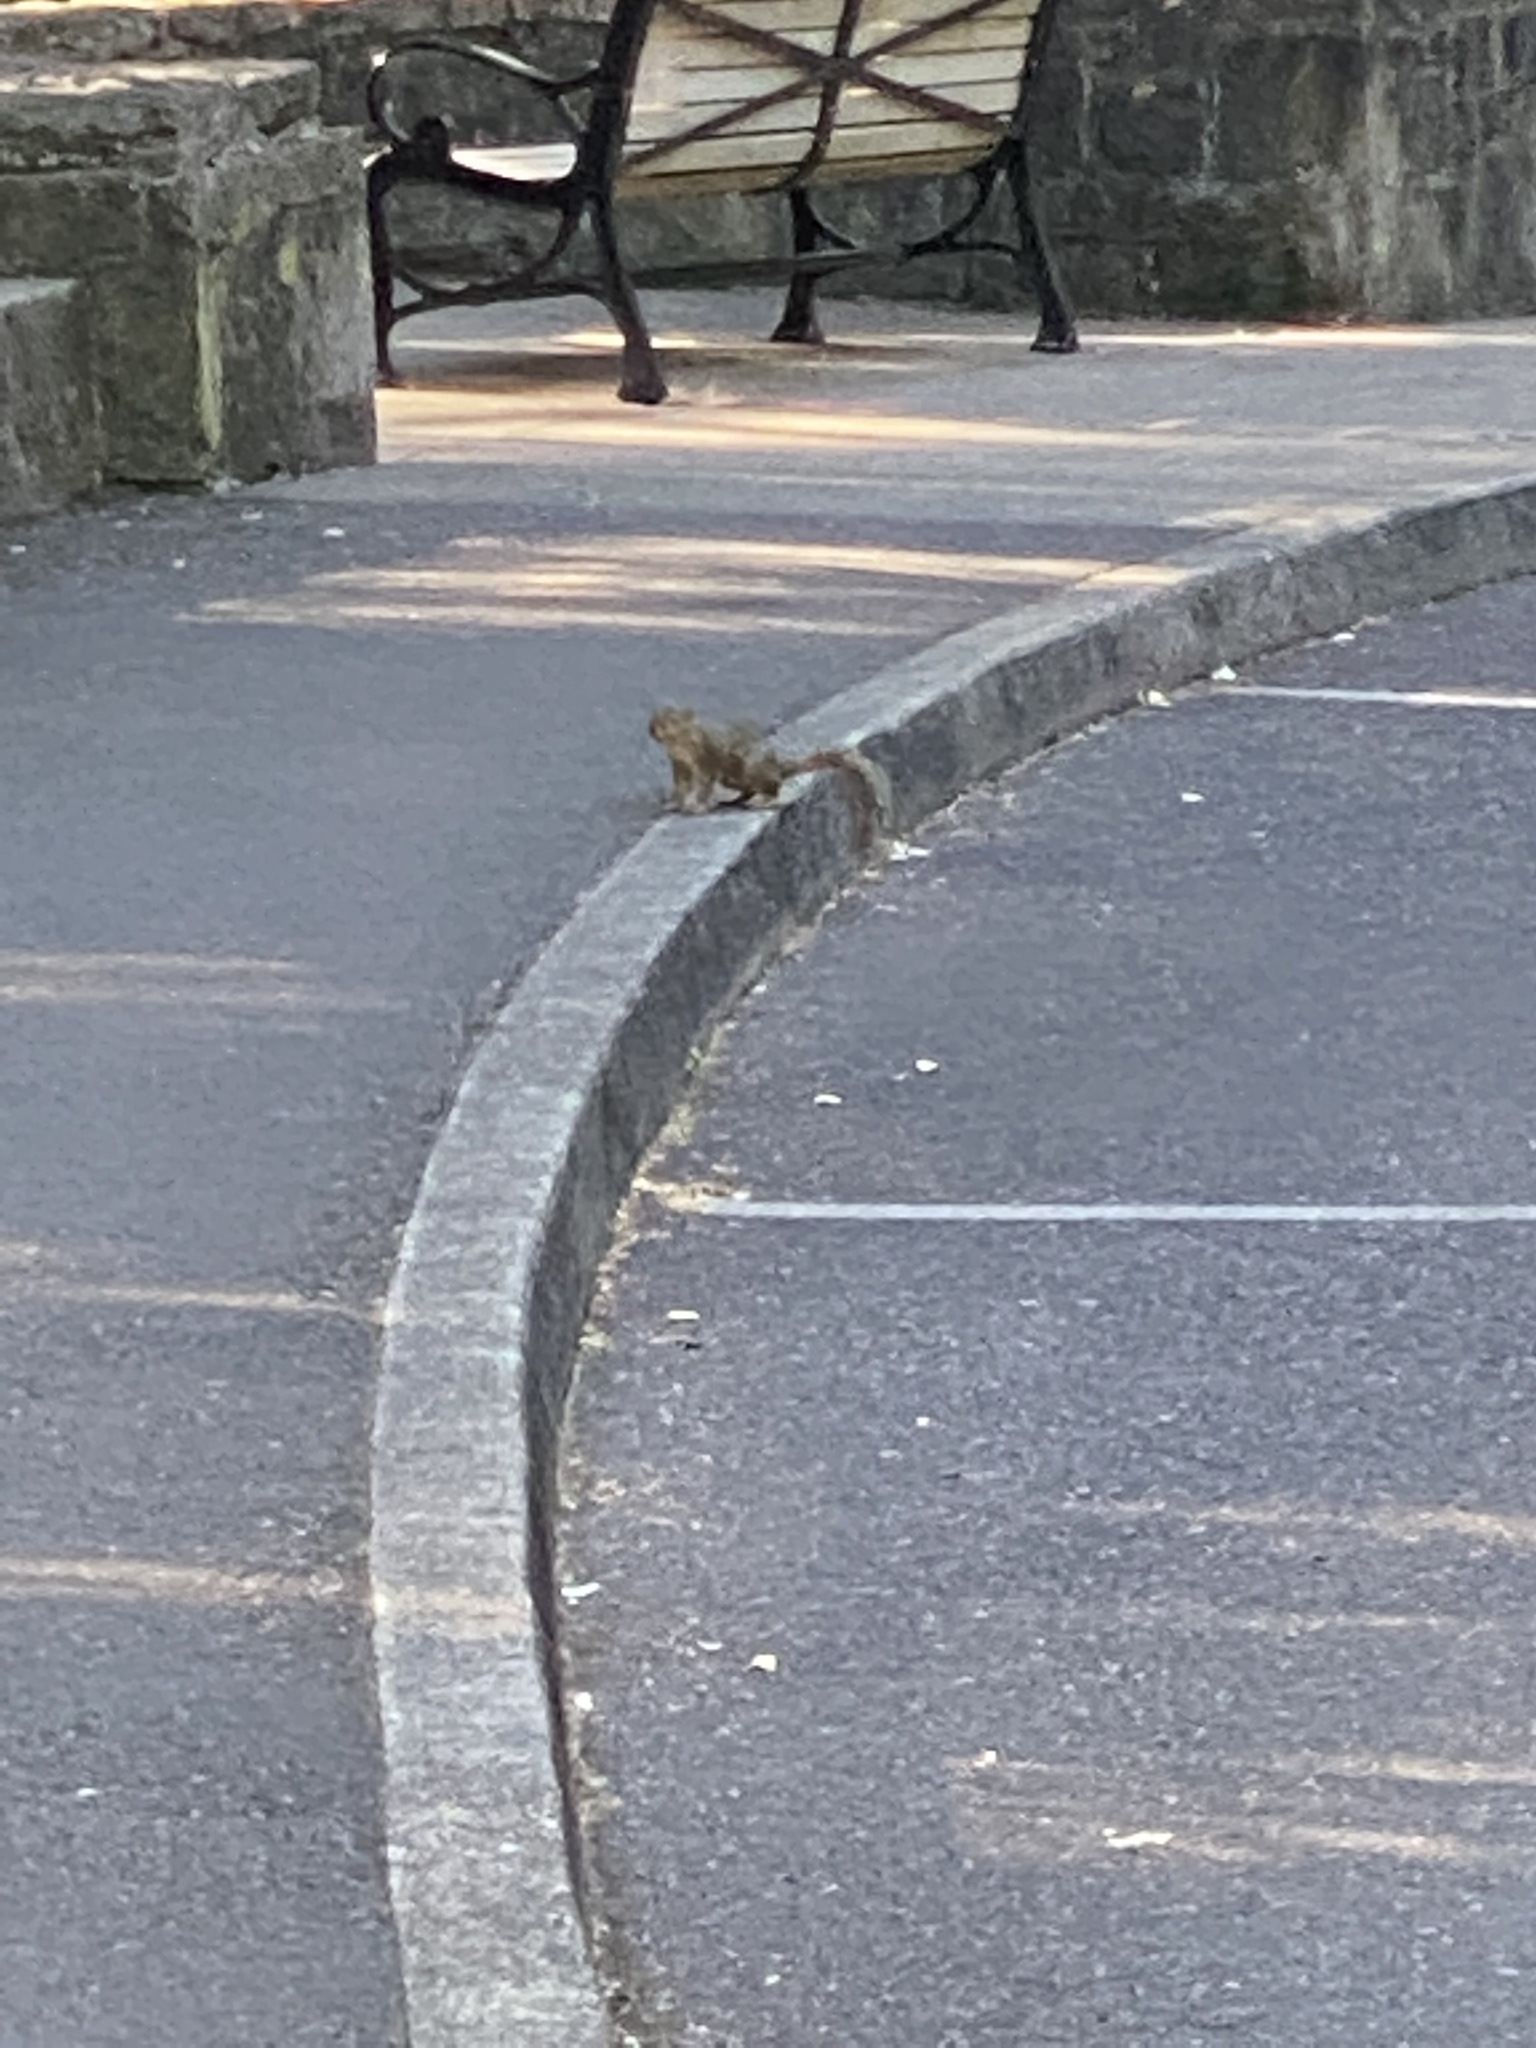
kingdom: Animalia
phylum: Chordata
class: Mammalia
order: Rodentia
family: Sciuridae
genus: Sciurus
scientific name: Sciurus carolinensis
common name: Eastern gray squirrel
